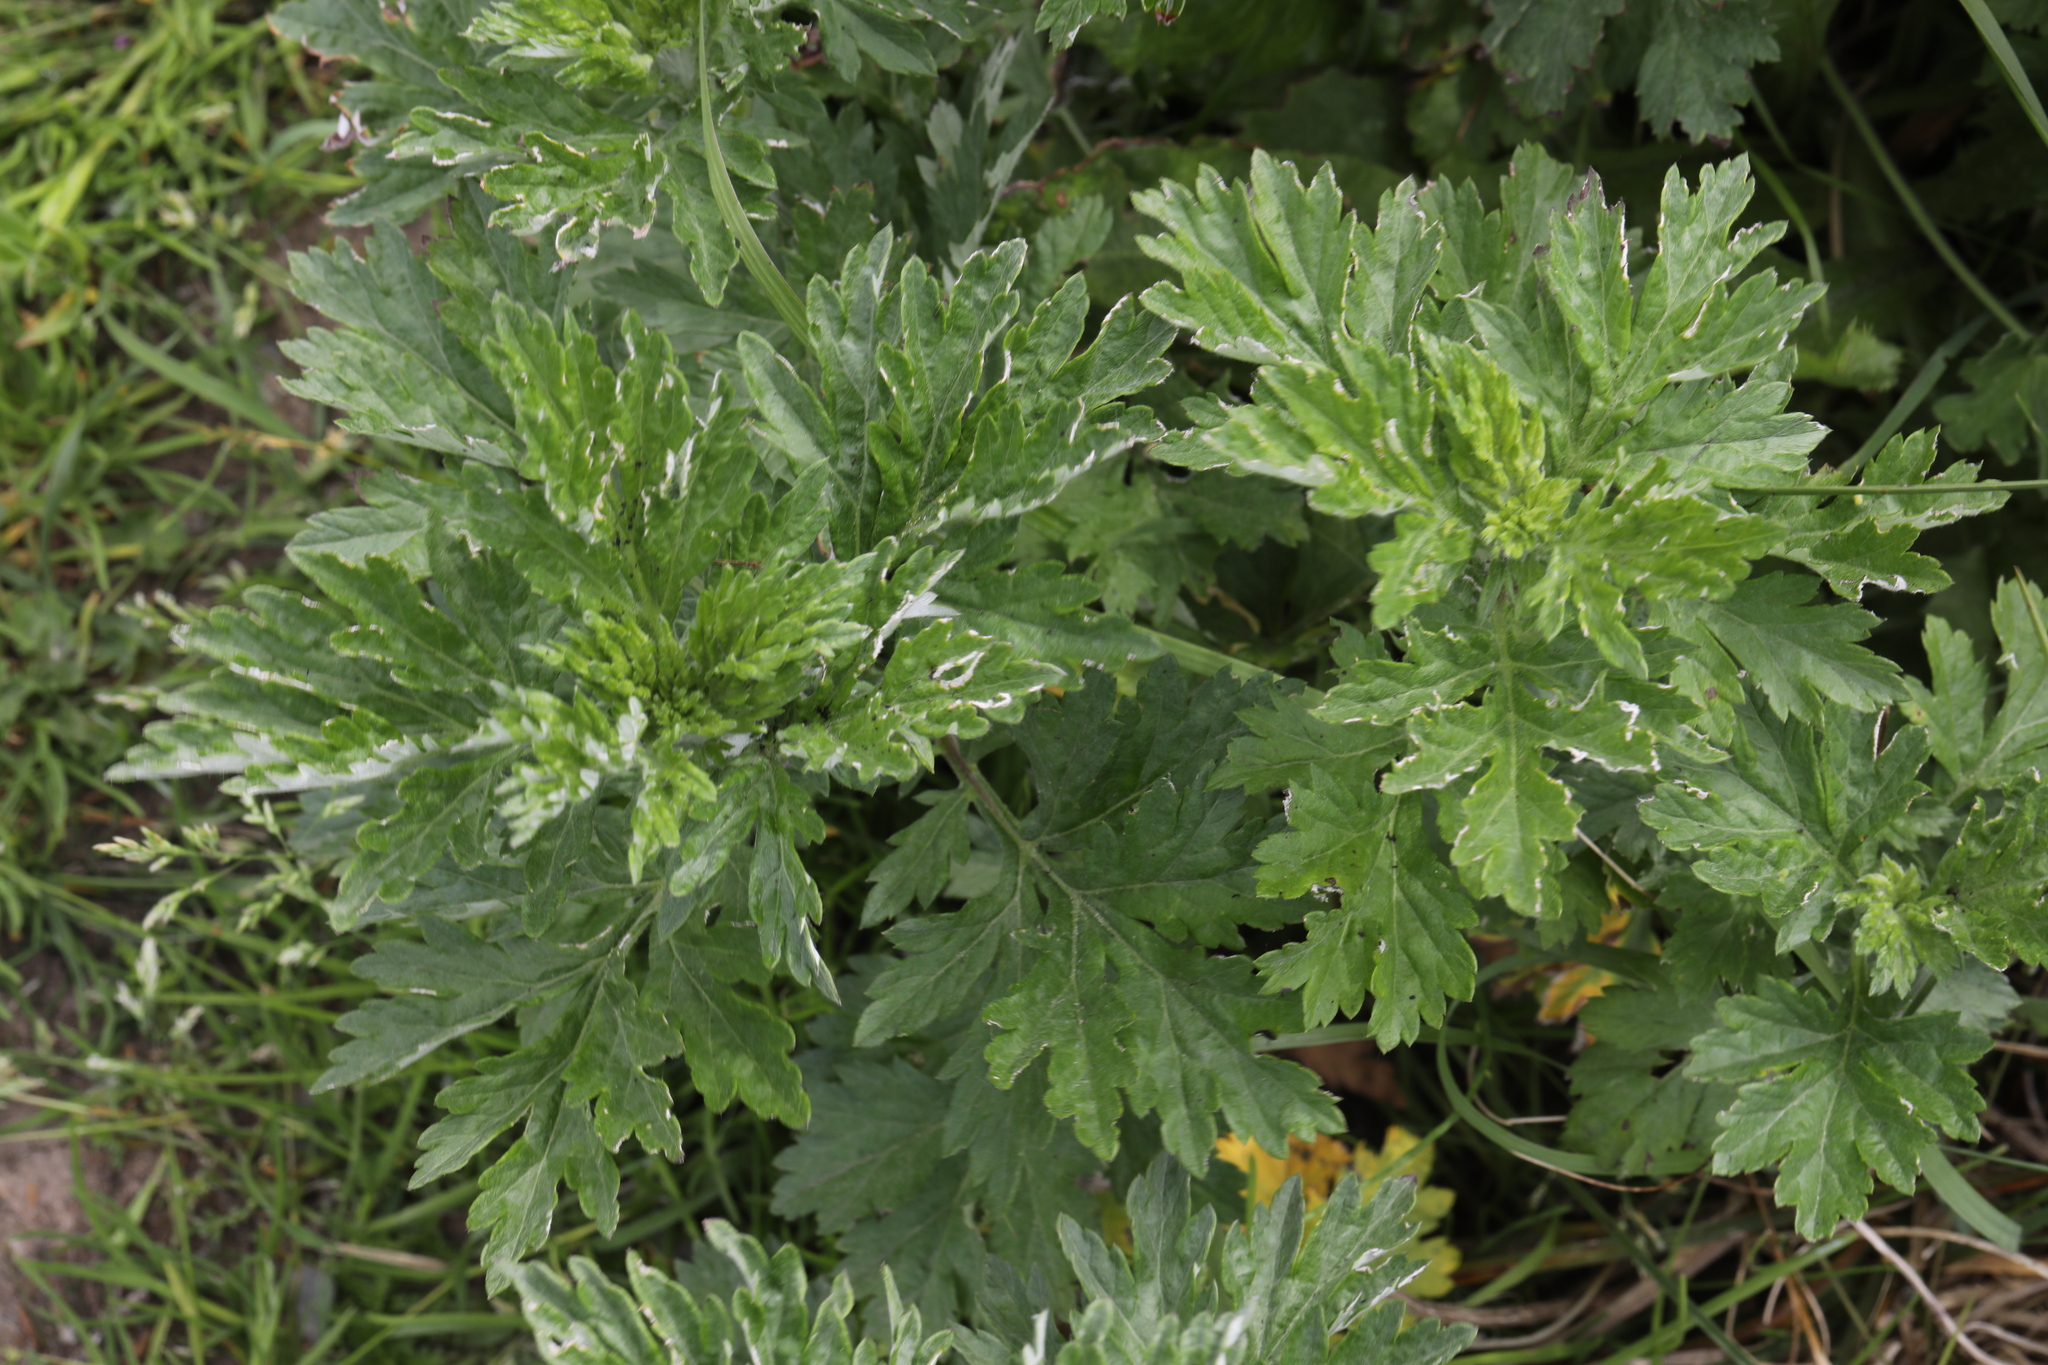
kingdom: Plantae
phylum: Tracheophyta
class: Magnoliopsida
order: Asterales
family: Asteraceae
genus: Artemisia
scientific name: Artemisia vulgaris
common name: Mugwort
